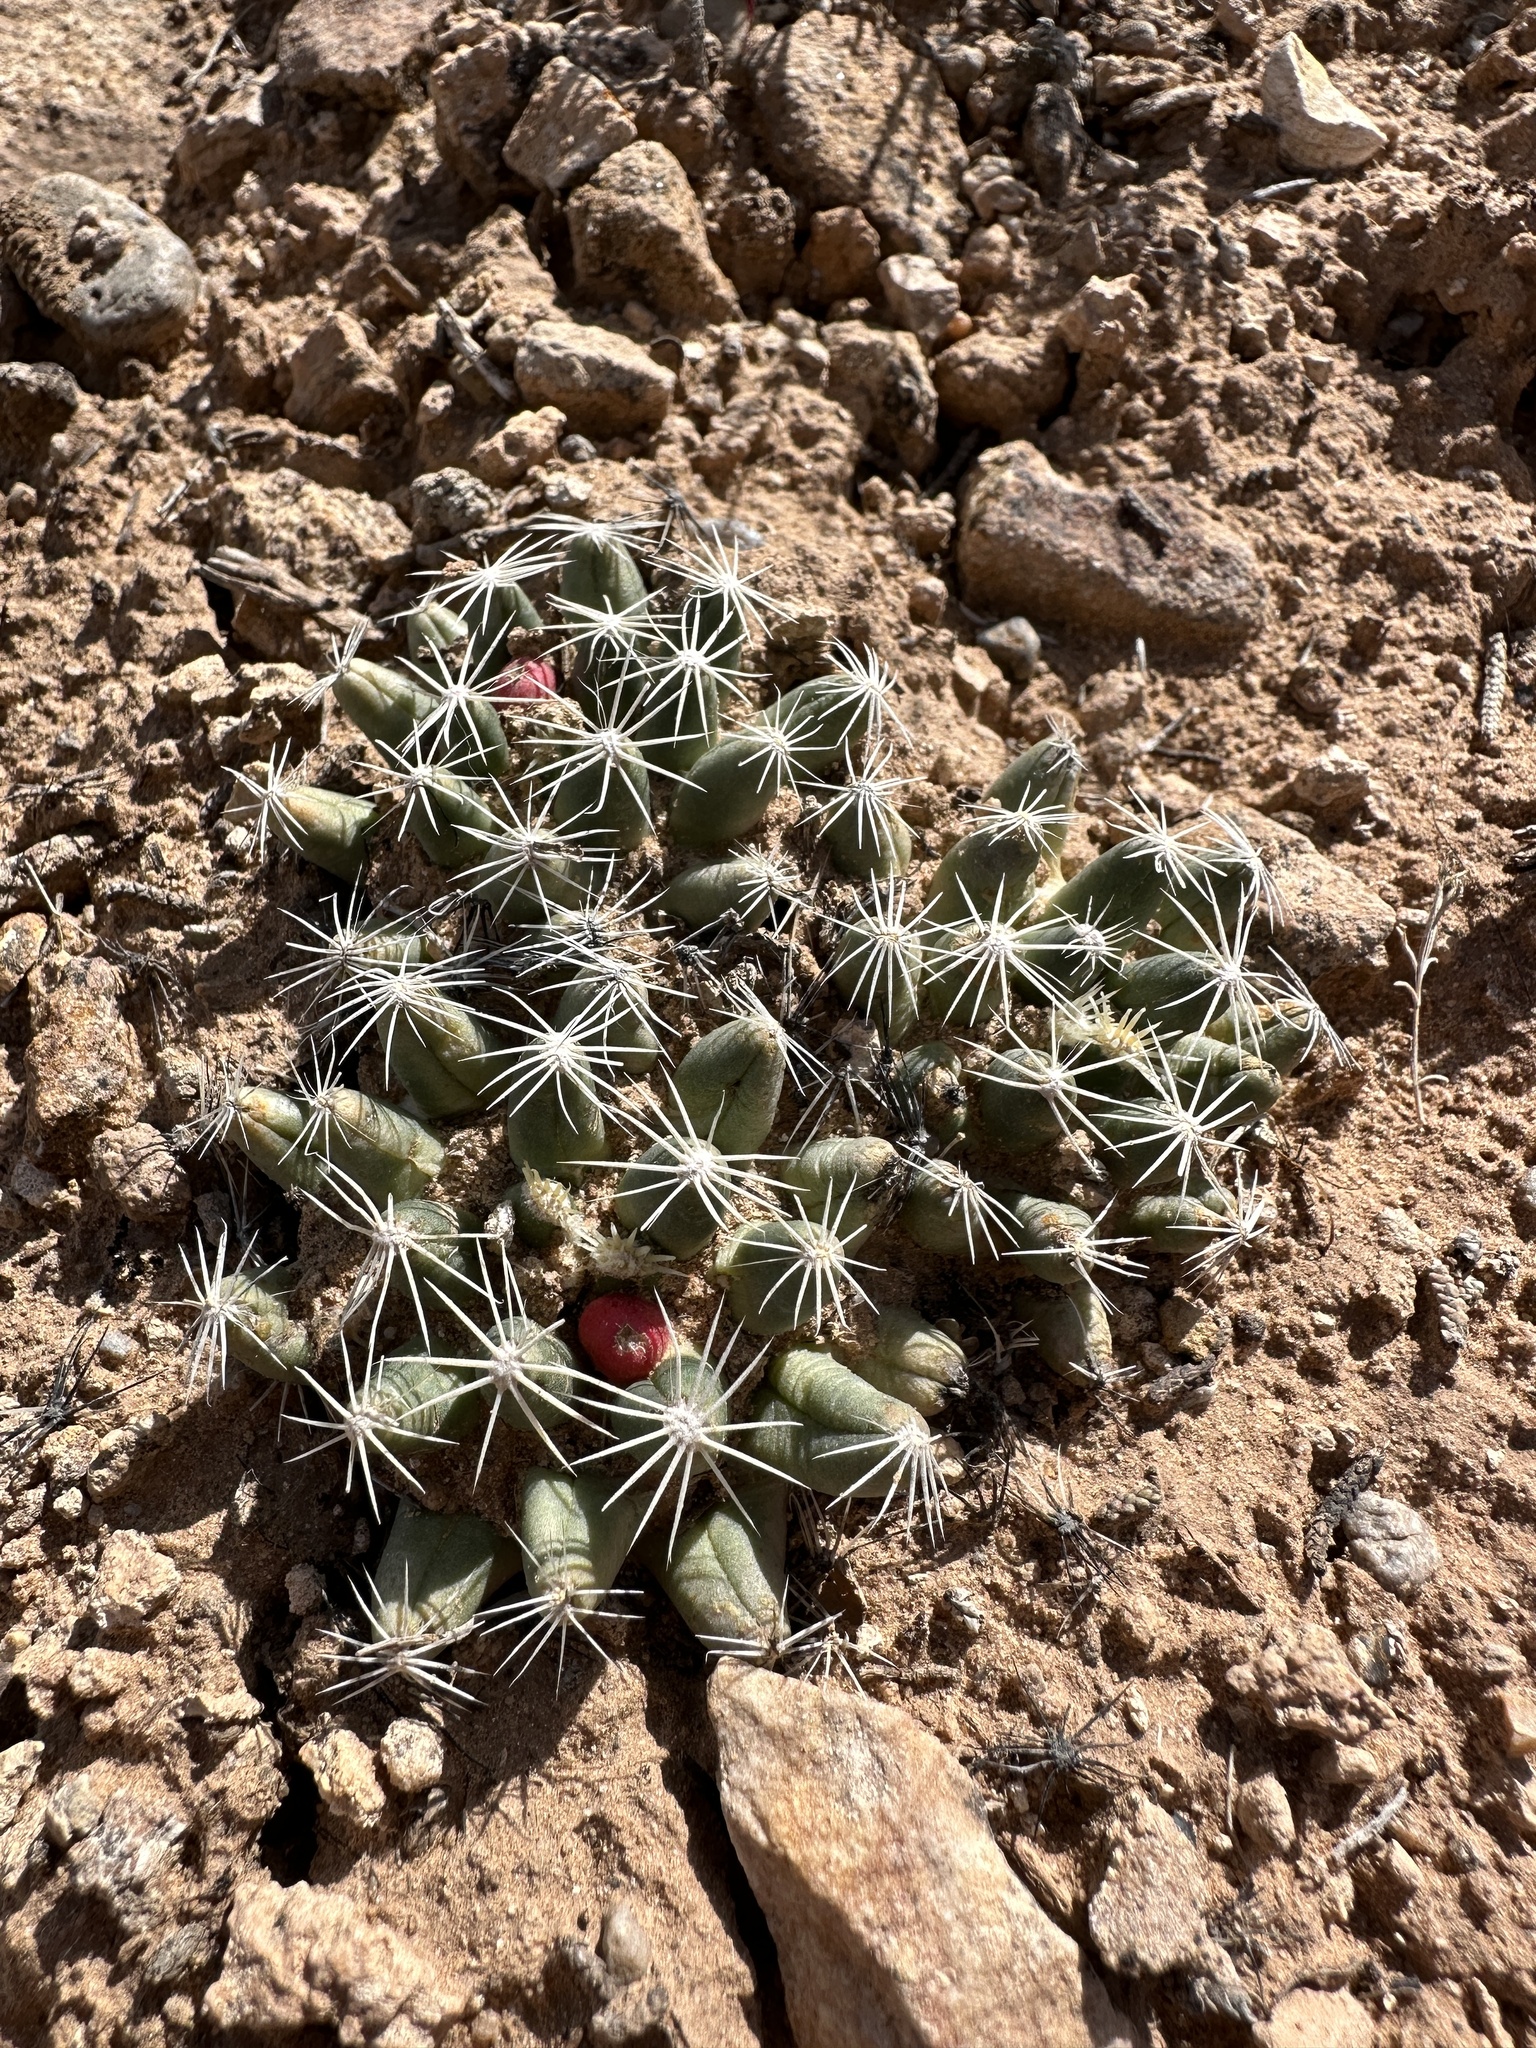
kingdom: Plantae
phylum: Tracheophyta
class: Magnoliopsida
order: Caryophyllales
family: Cactaceae
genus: Pelecyphora
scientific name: Pelecyphora missouriensis
